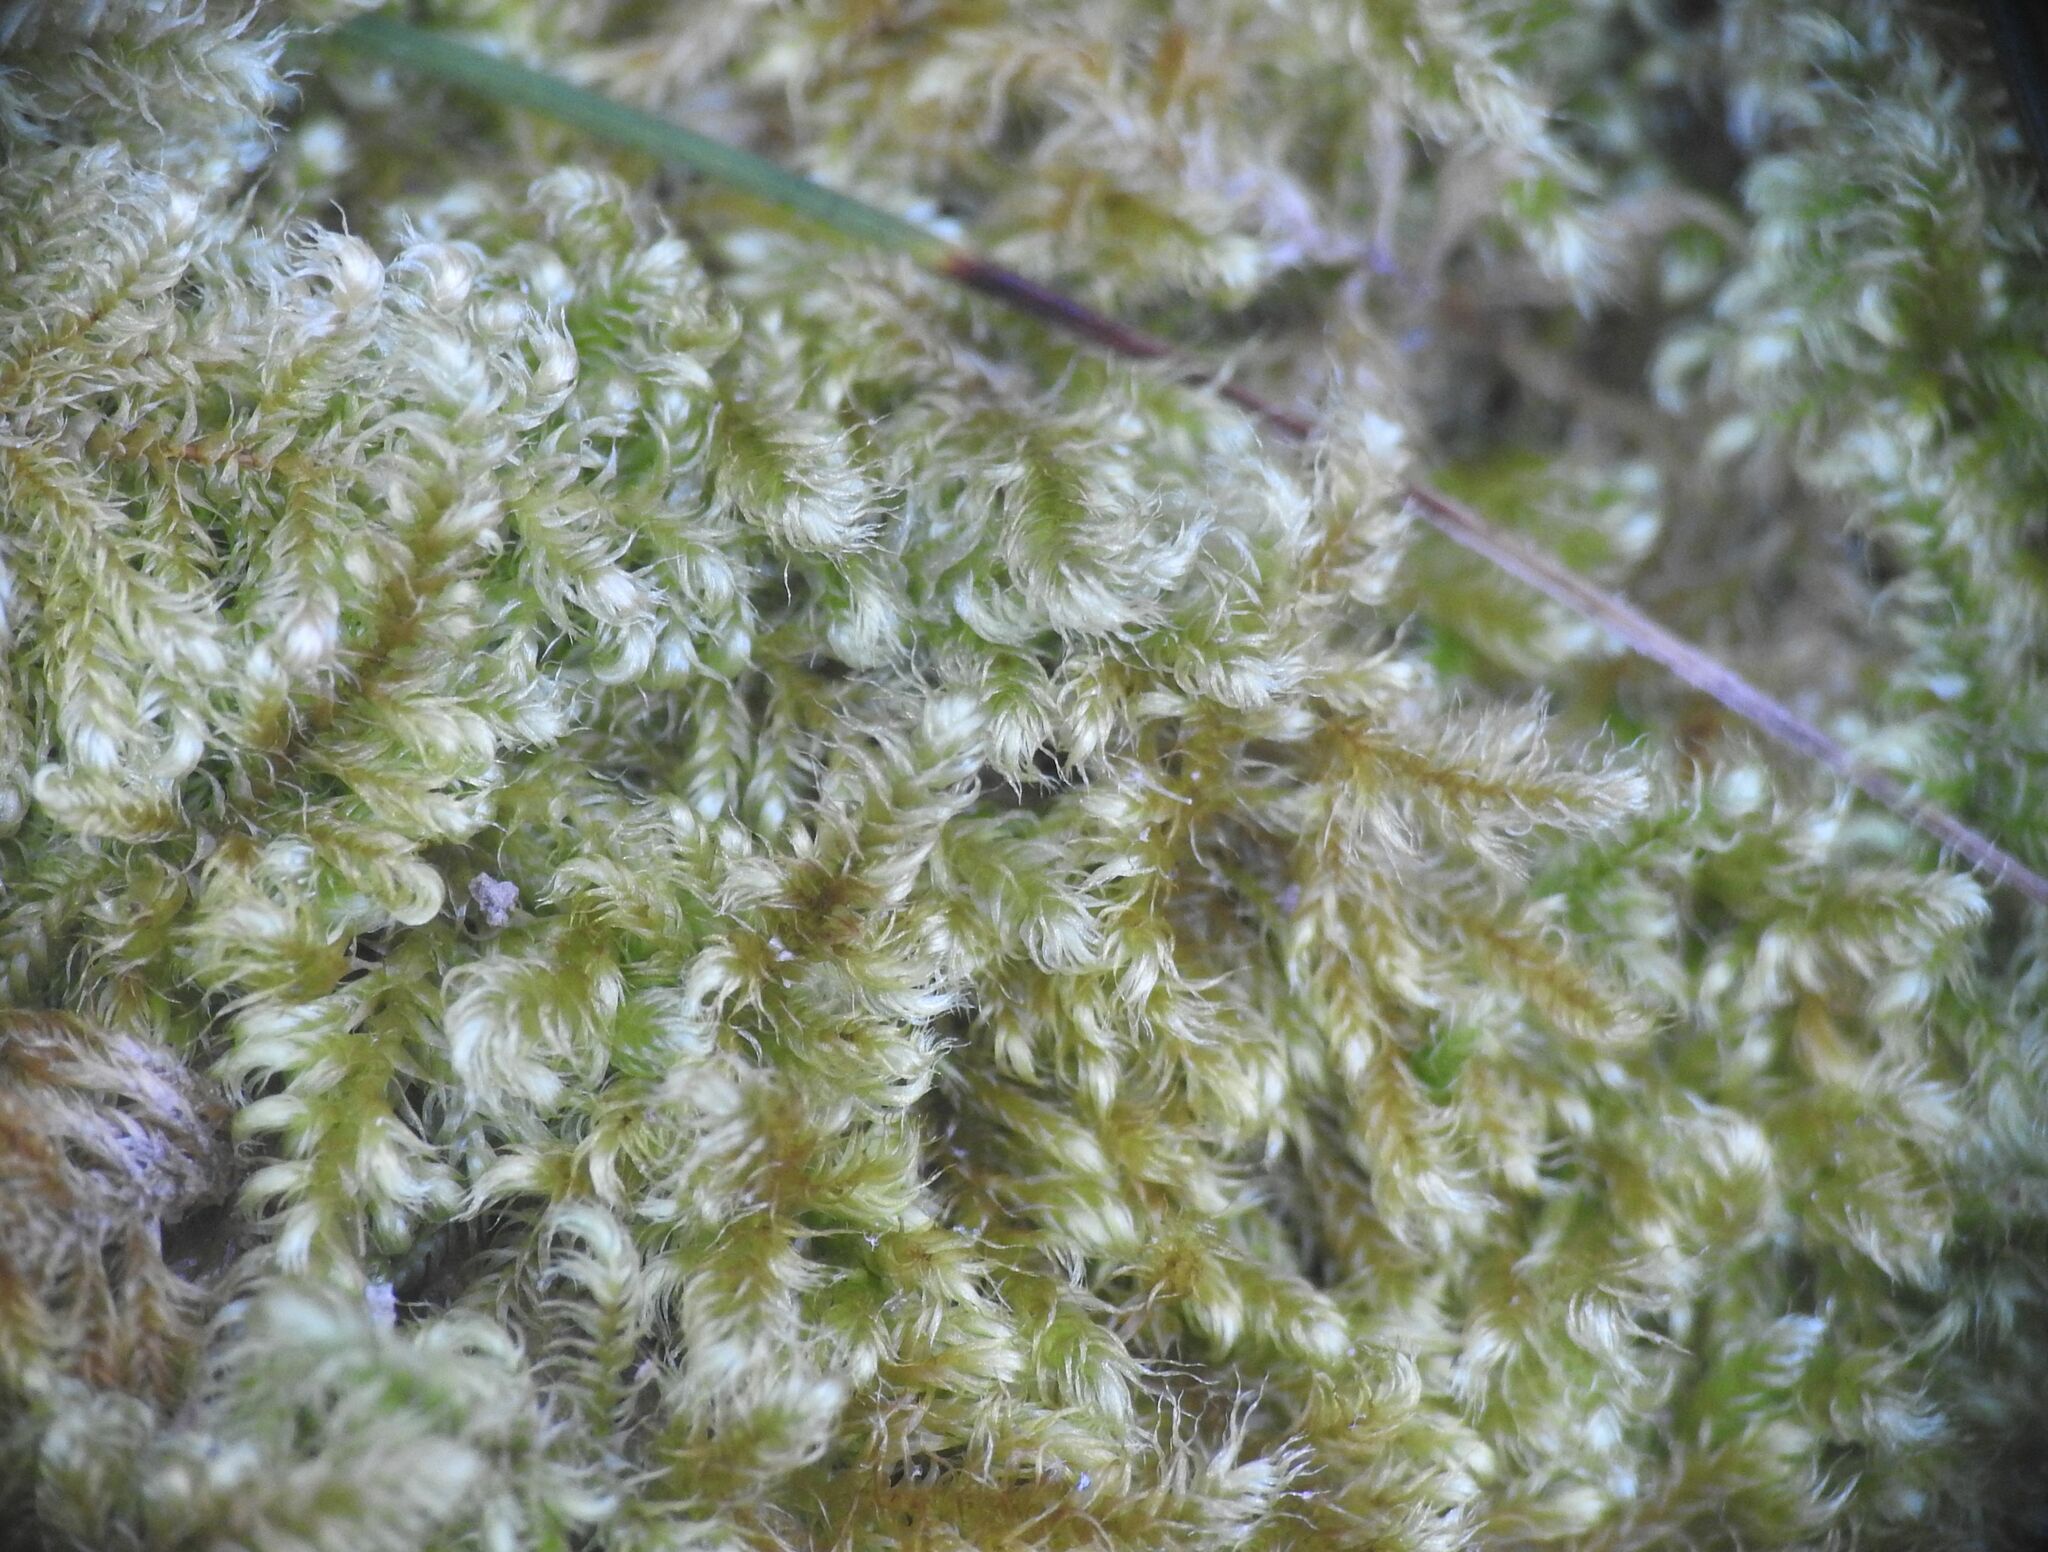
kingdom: Plantae
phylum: Bryophyta
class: Bryopsida
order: Hypnales
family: Myuriaceae
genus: Ctenidium
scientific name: Ctenidium molluscum
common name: Chalk comb-moss
